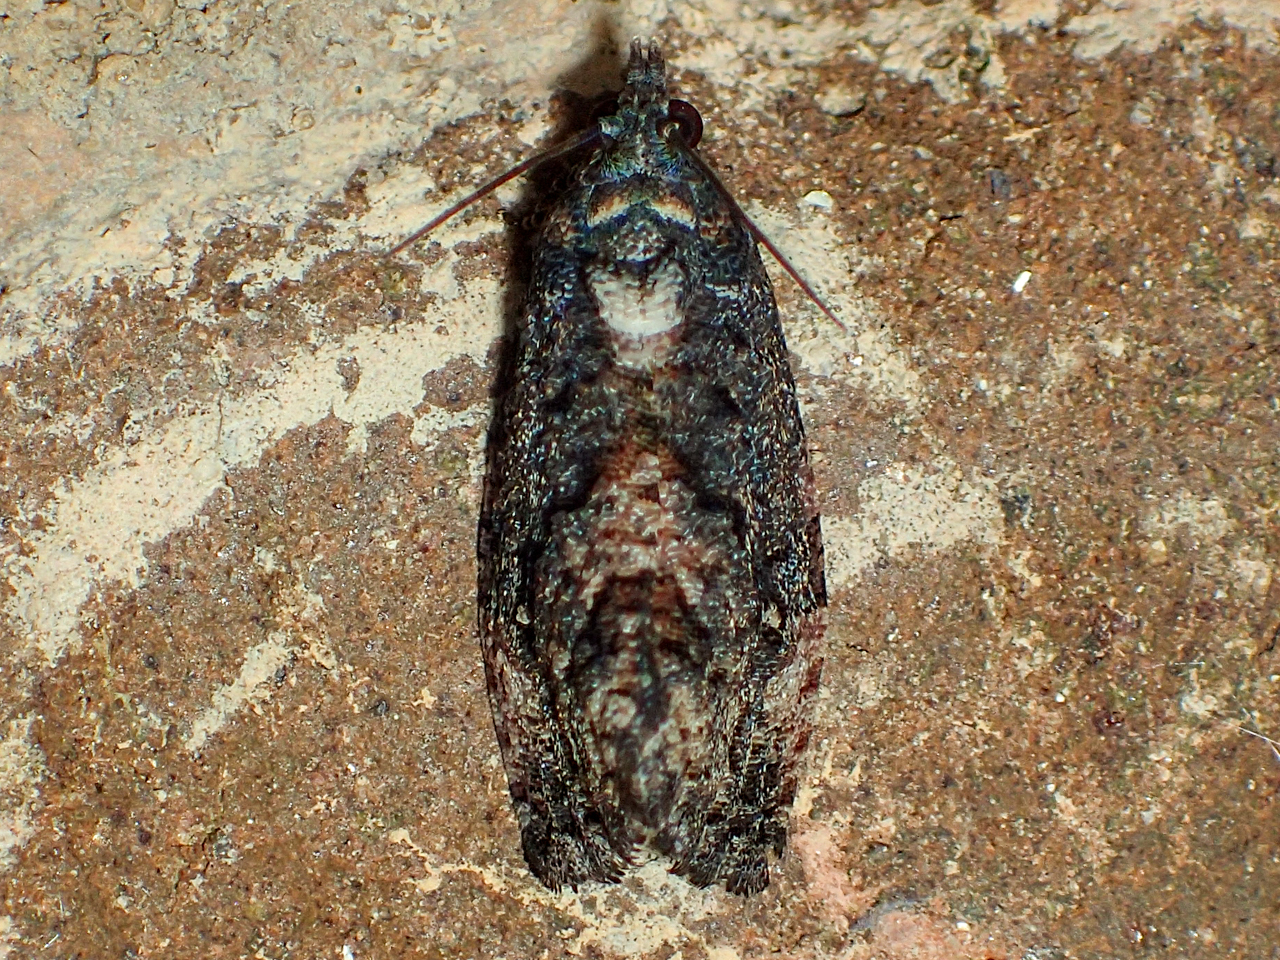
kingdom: Animalia
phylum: Arthropoda
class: Insecta
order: Lepidoptera
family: Tortricidae
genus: Gymnandrosoma
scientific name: Gymnandrosoma punctidiscanum
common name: Dotted ecdytolopha moth
